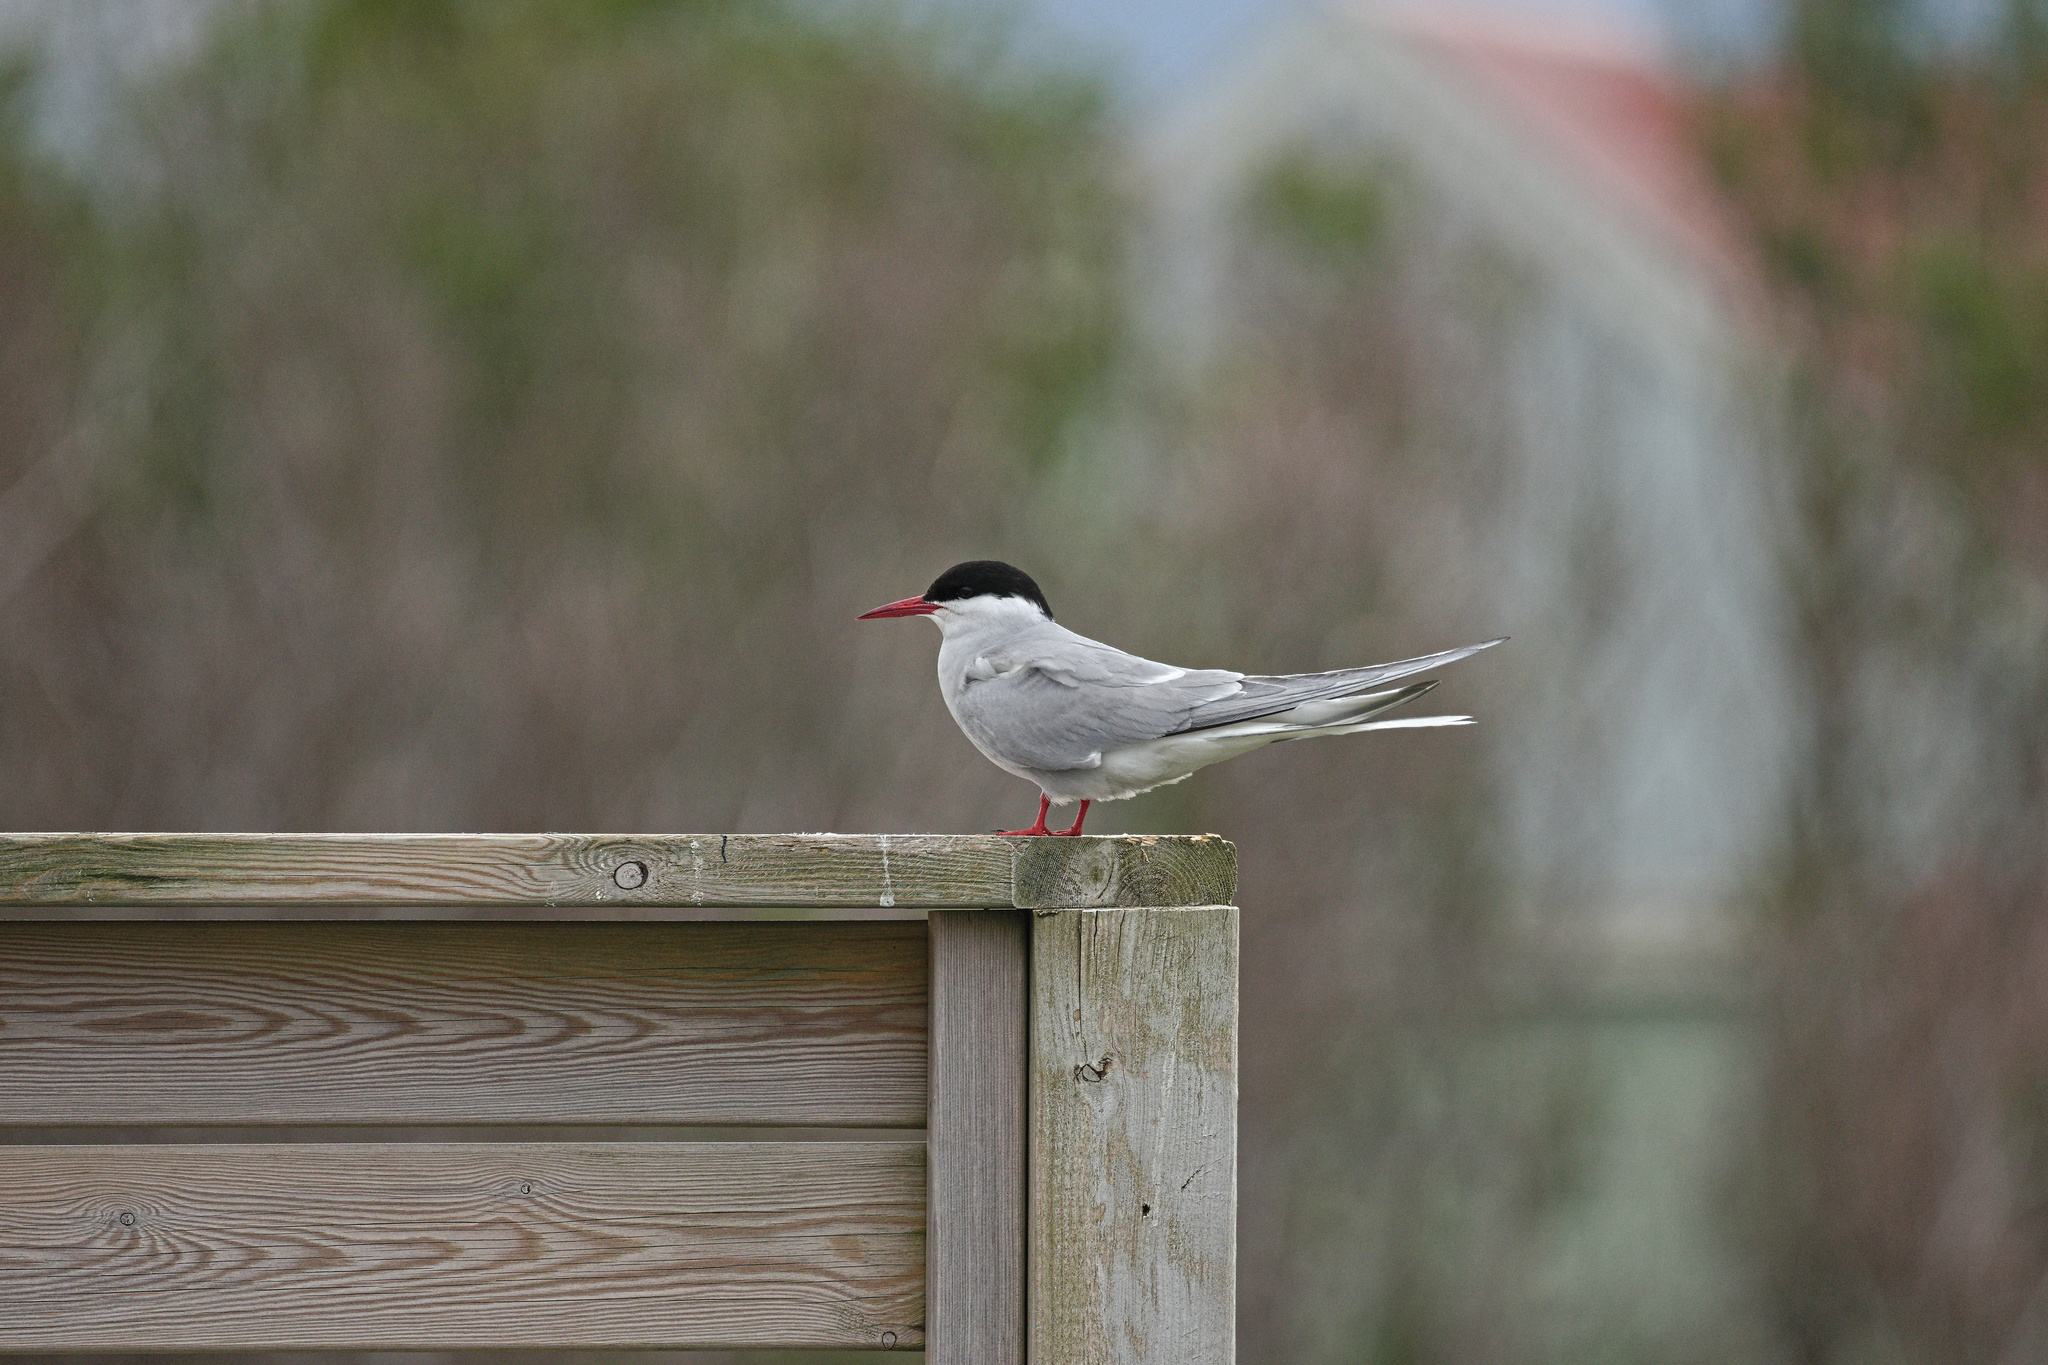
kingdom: Animalia
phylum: Chordata
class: Aves
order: Charadriiformes
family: Laridae
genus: Sterna
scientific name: Sterna paradisaea
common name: Arctic tern
